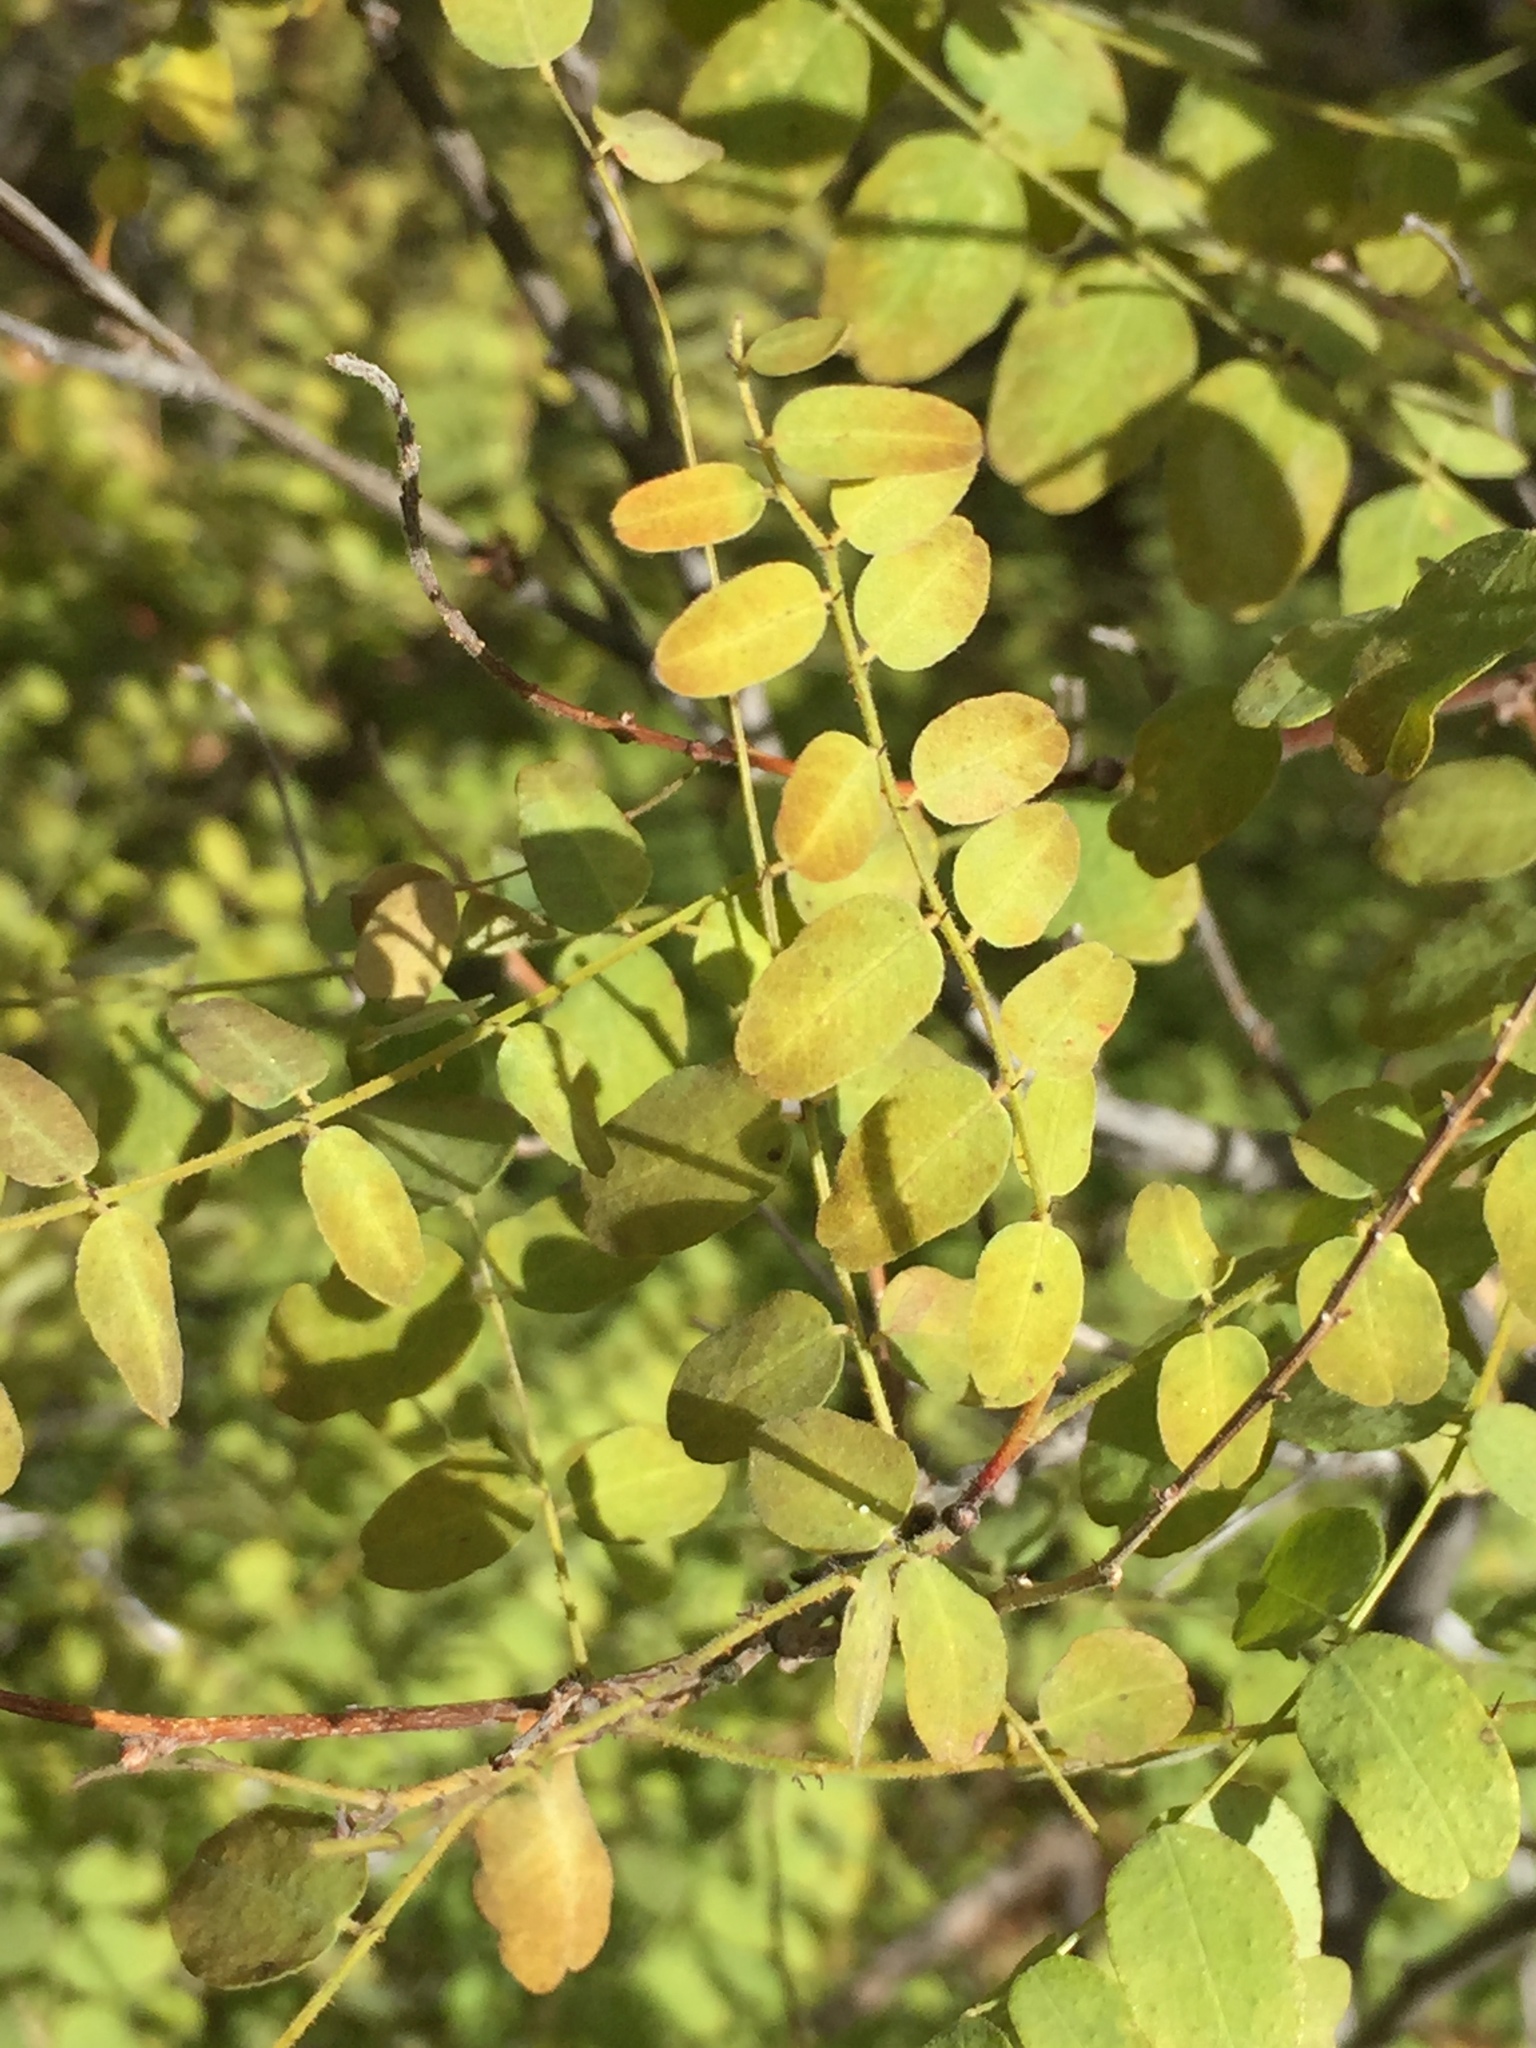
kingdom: Plantae
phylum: Tracheophyta
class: Magnoliopsida
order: Fabales
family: Fabaceae
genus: Amorpha
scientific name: Amorpha californica
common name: California indigobush
